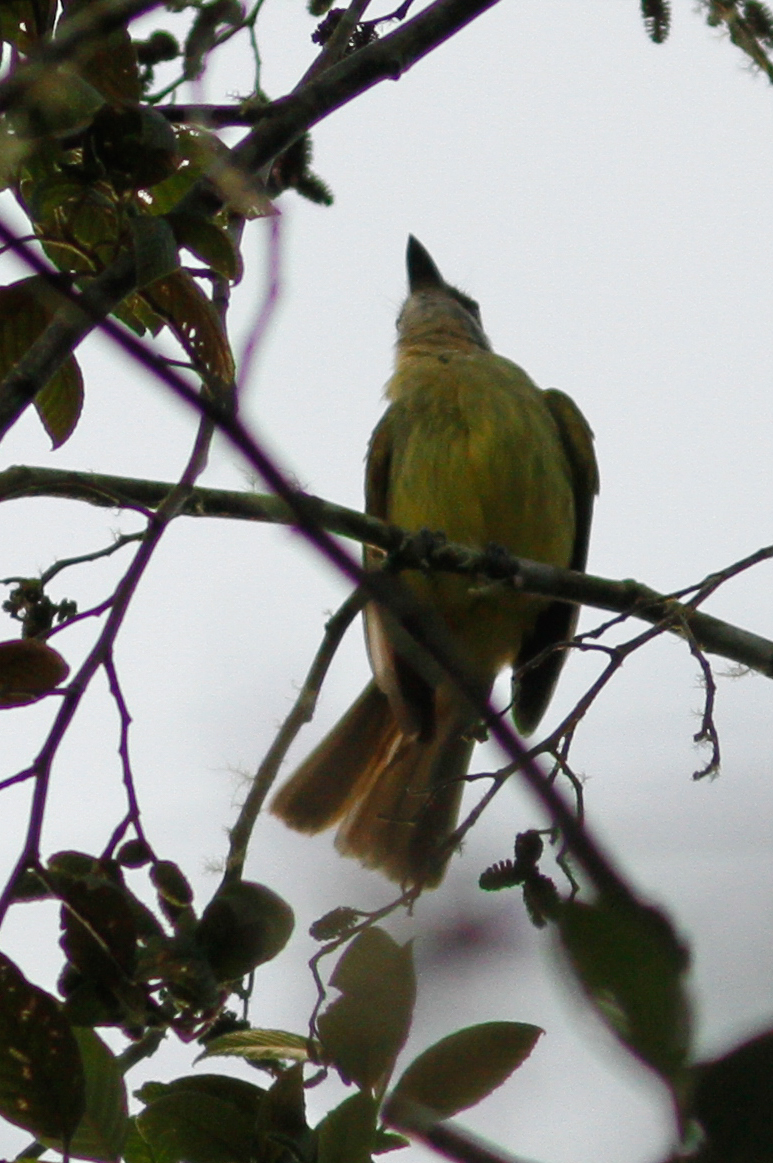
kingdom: Animalia
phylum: Chordata
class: Aves
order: Passeriformes
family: Tyrannidae
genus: Myiodynastes
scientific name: Myiodynastes hemichrysus
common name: Golden-bellied flycatcher
